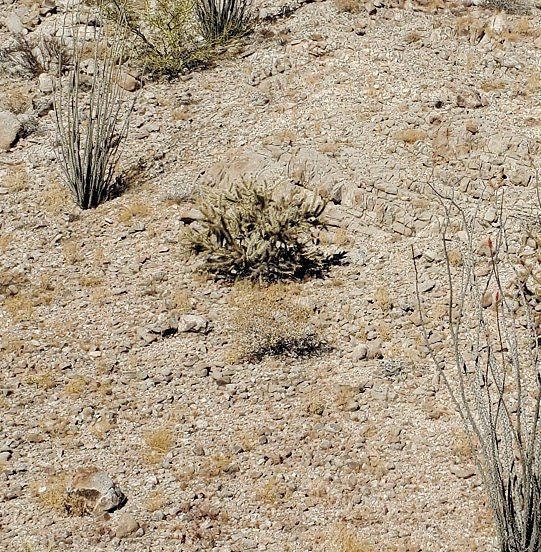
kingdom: Plantae
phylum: Tracheophyta
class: Magnoliopsida
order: Caryophyllales
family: Cactaceae
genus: Cylindropuntia
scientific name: Cylindropuntia acanthocarpa
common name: Buckhorn cholla
